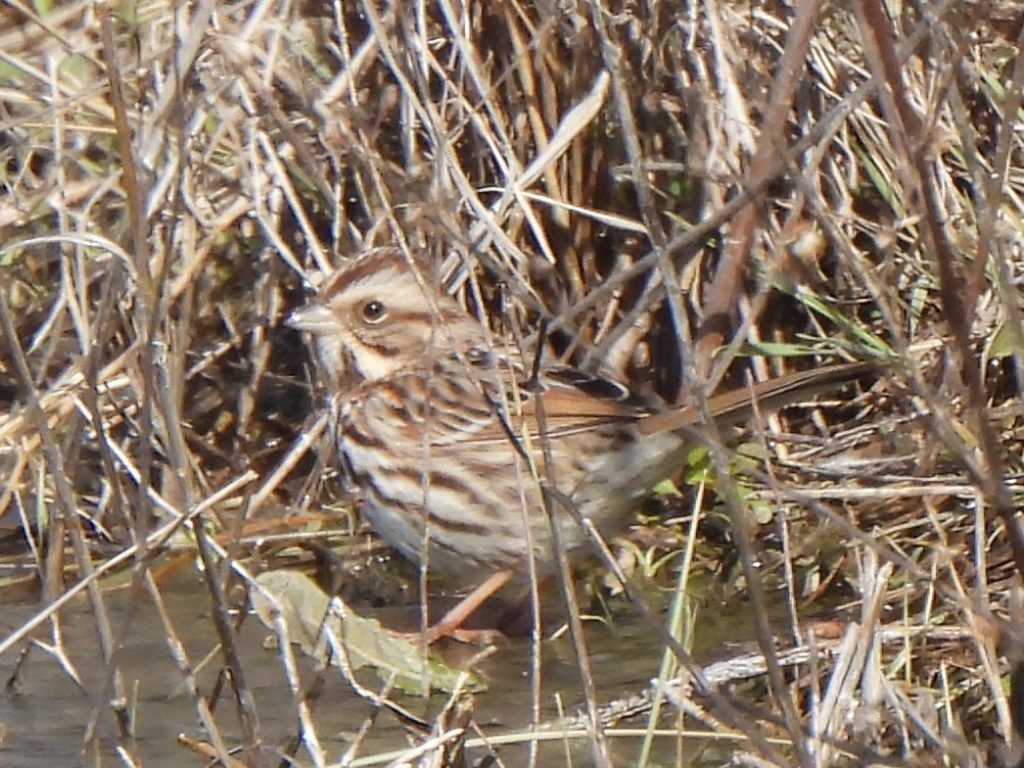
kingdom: Animalia
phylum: Chordata
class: Aves
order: Passeriformes
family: Passerellidae
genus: Melospiza
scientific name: Melospiza melodia
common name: Song sparrow
